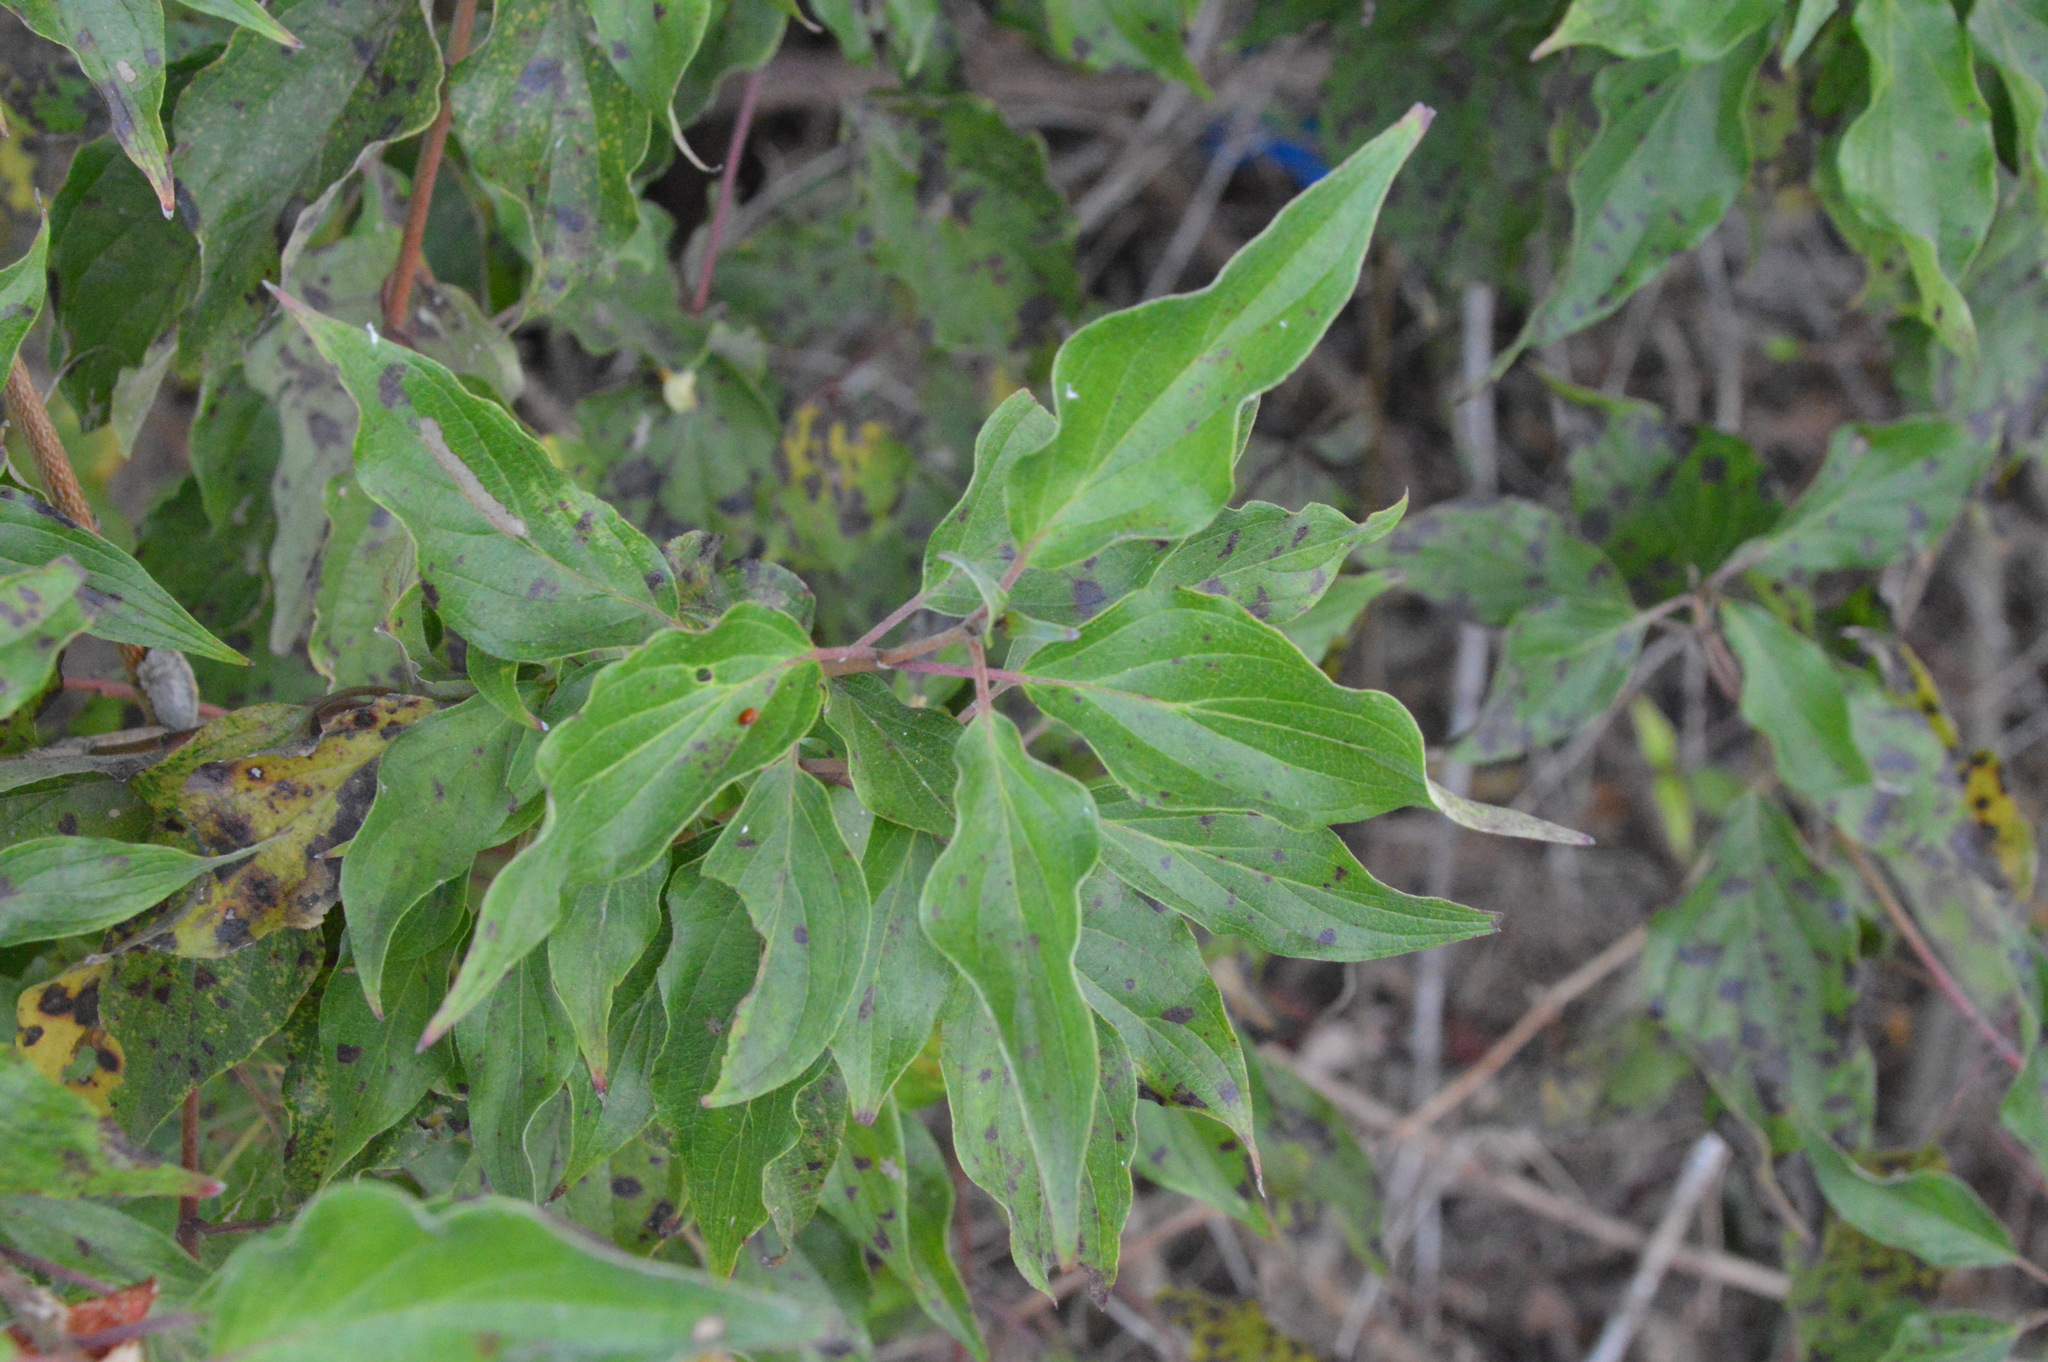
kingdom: Plantae
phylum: Tracheophyta
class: Magnoliopsida
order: Cornales
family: Cornaceae
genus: Cornus
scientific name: Cornus drummondii
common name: Rough-leaf dogwood
